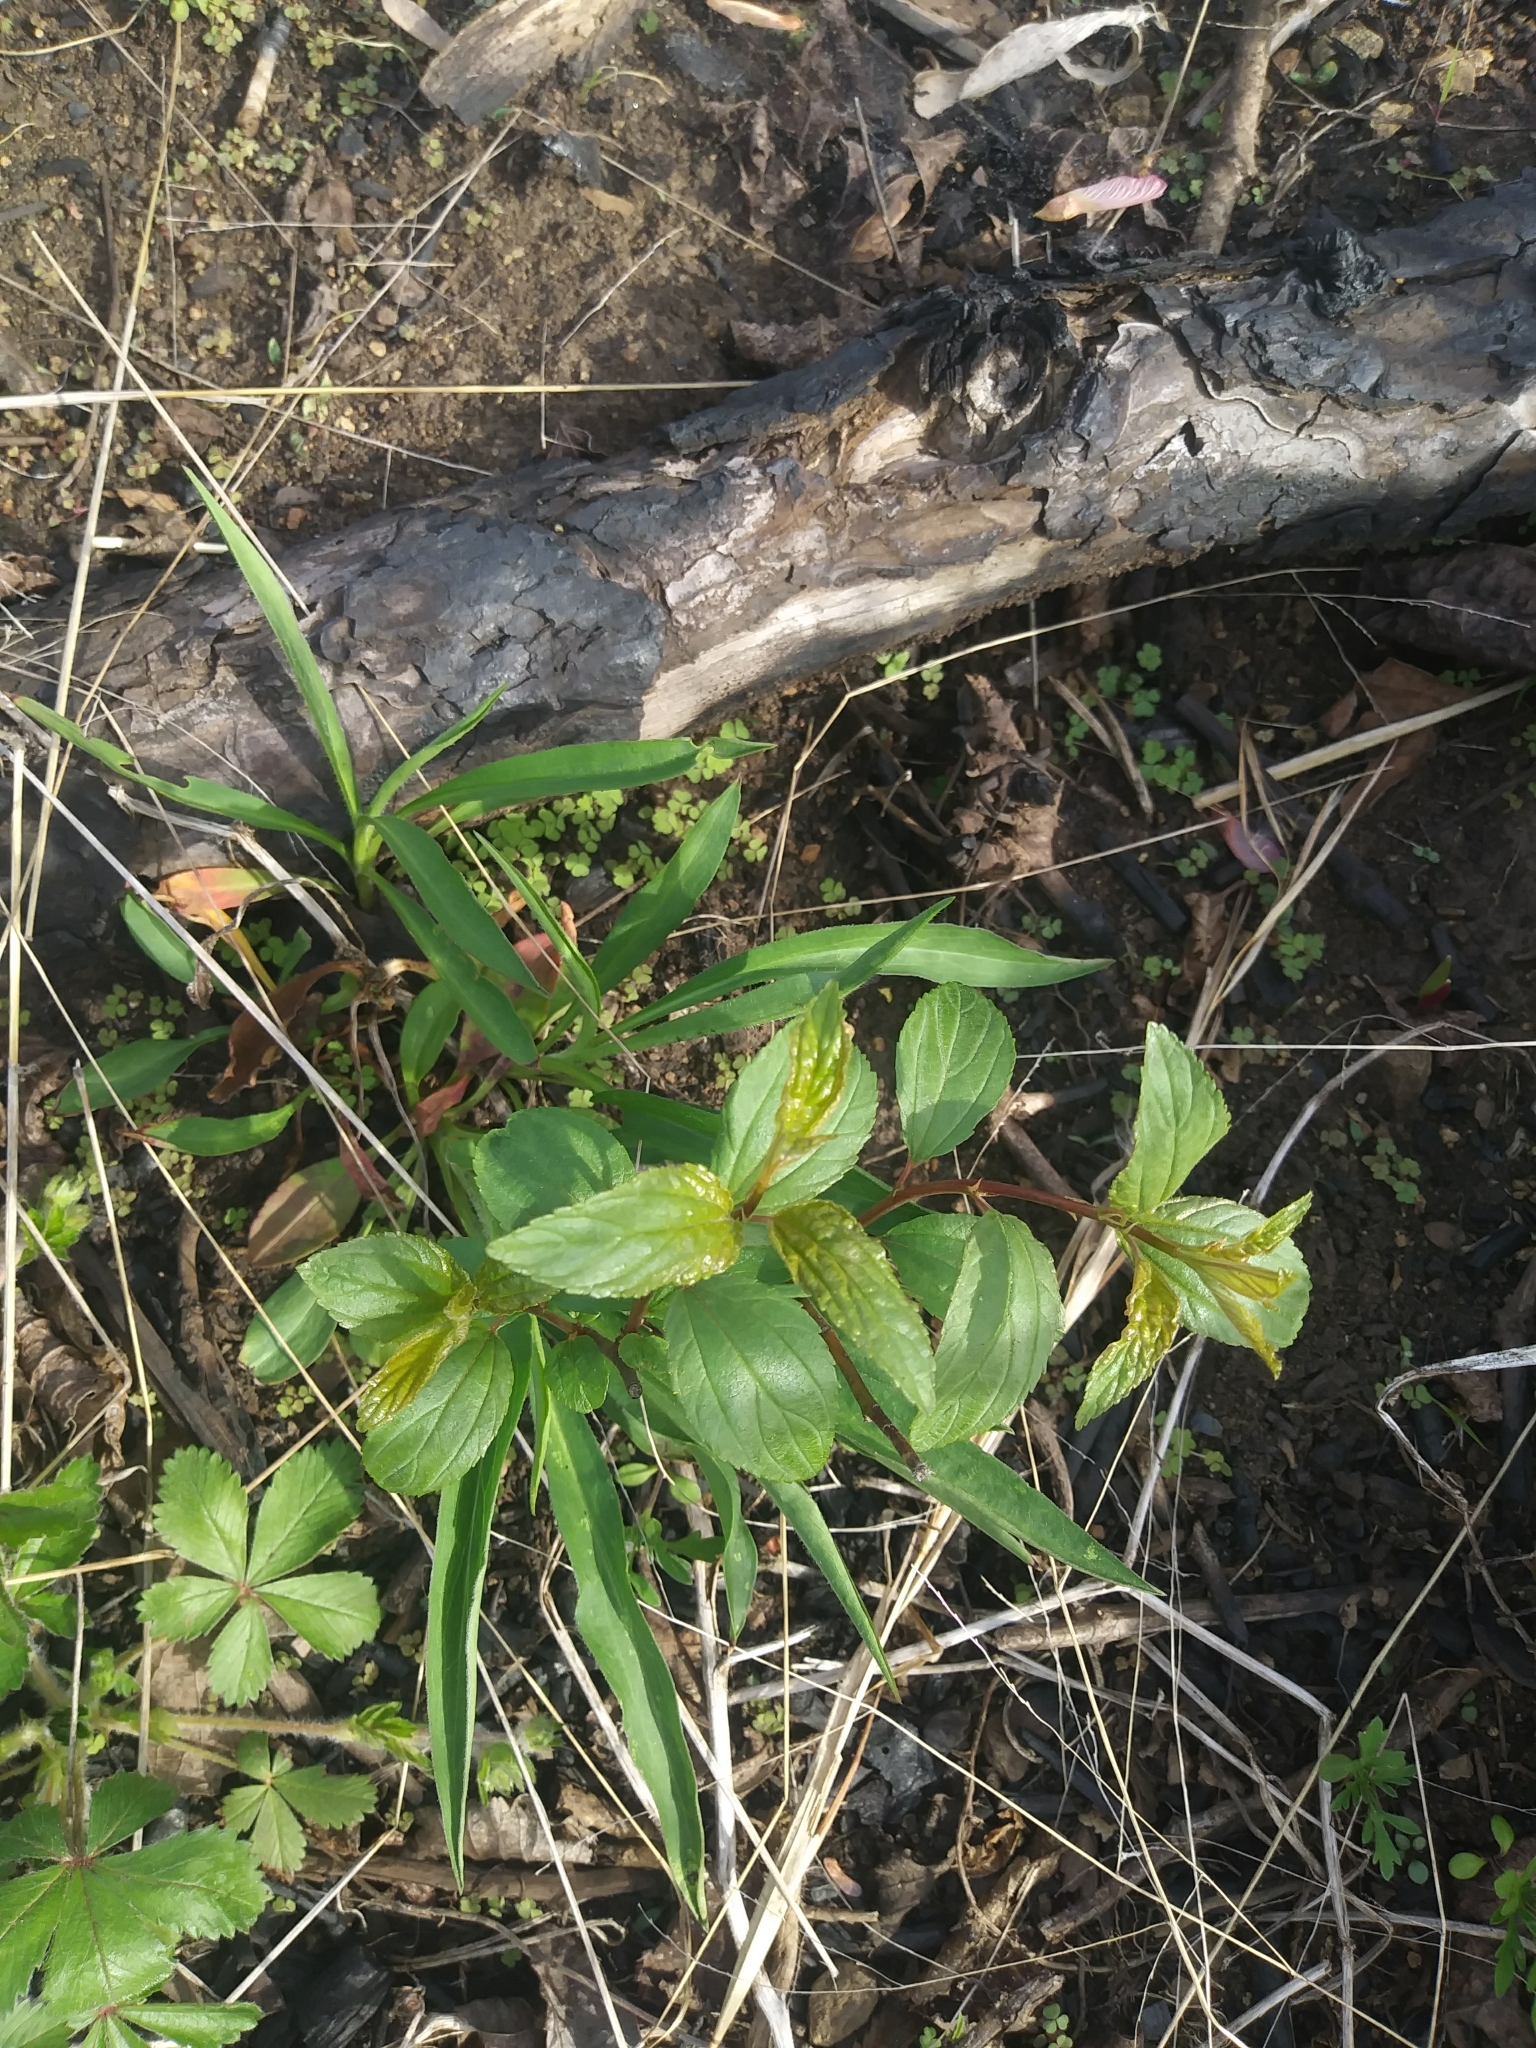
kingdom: Plantae
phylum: Tracheophyta
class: Magnoliopsida
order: Rosales
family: Rhamnaceae
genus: Ceanothus
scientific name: Ceanothus americanus
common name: Redroot
